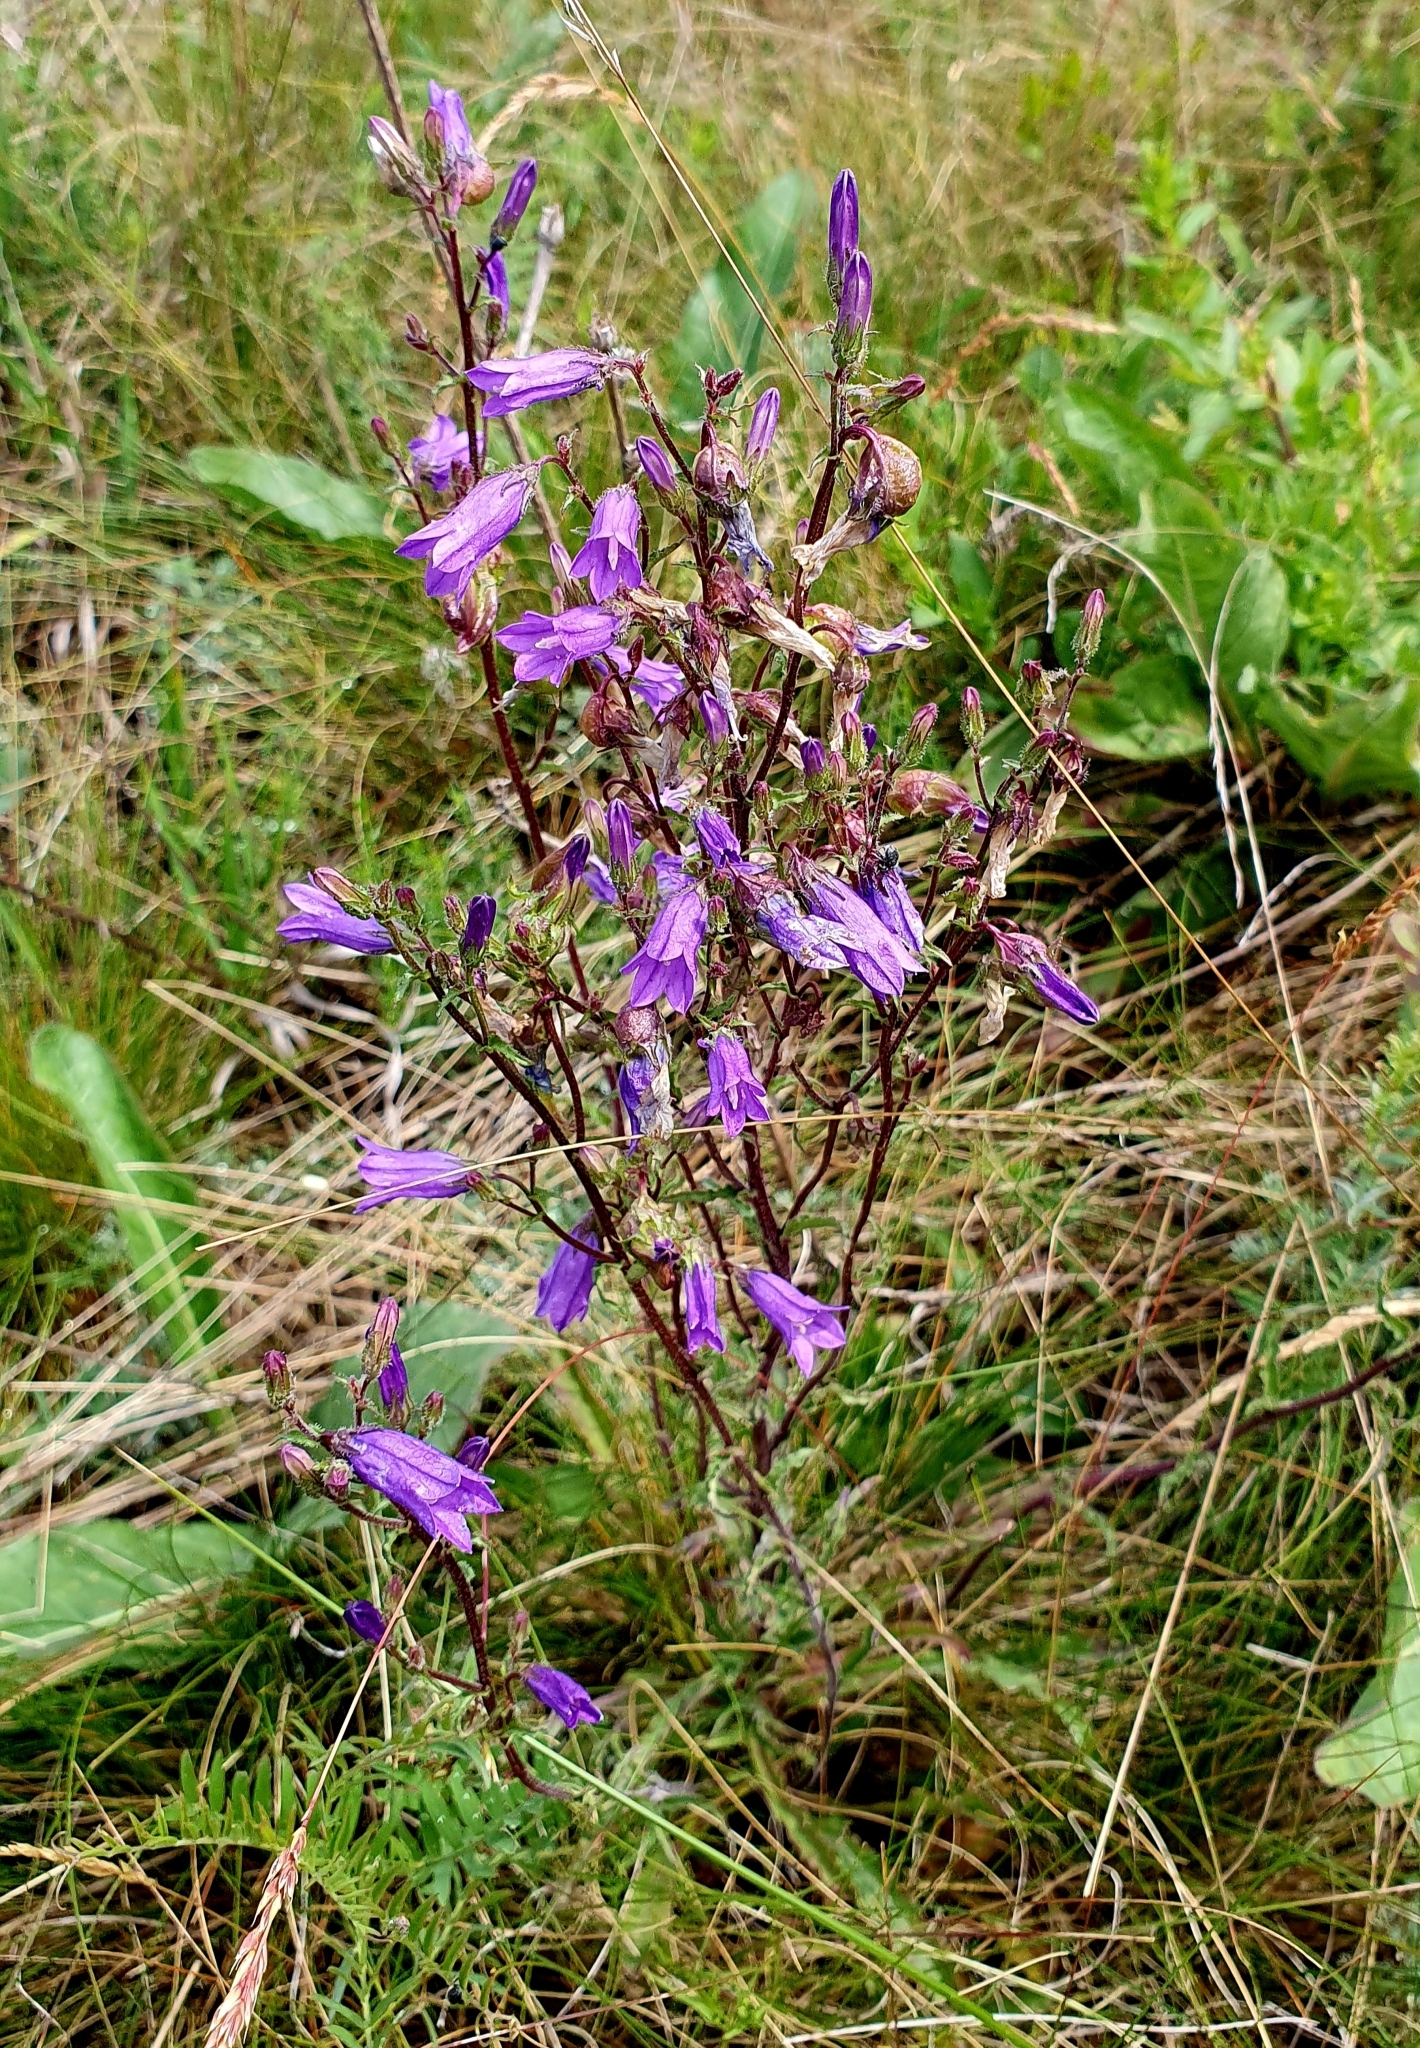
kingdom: Plantae
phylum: Tracheophyta
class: Magnoliopsida
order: Asterales
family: Campanulaceae
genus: Campanula
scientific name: Campanula sibirica
